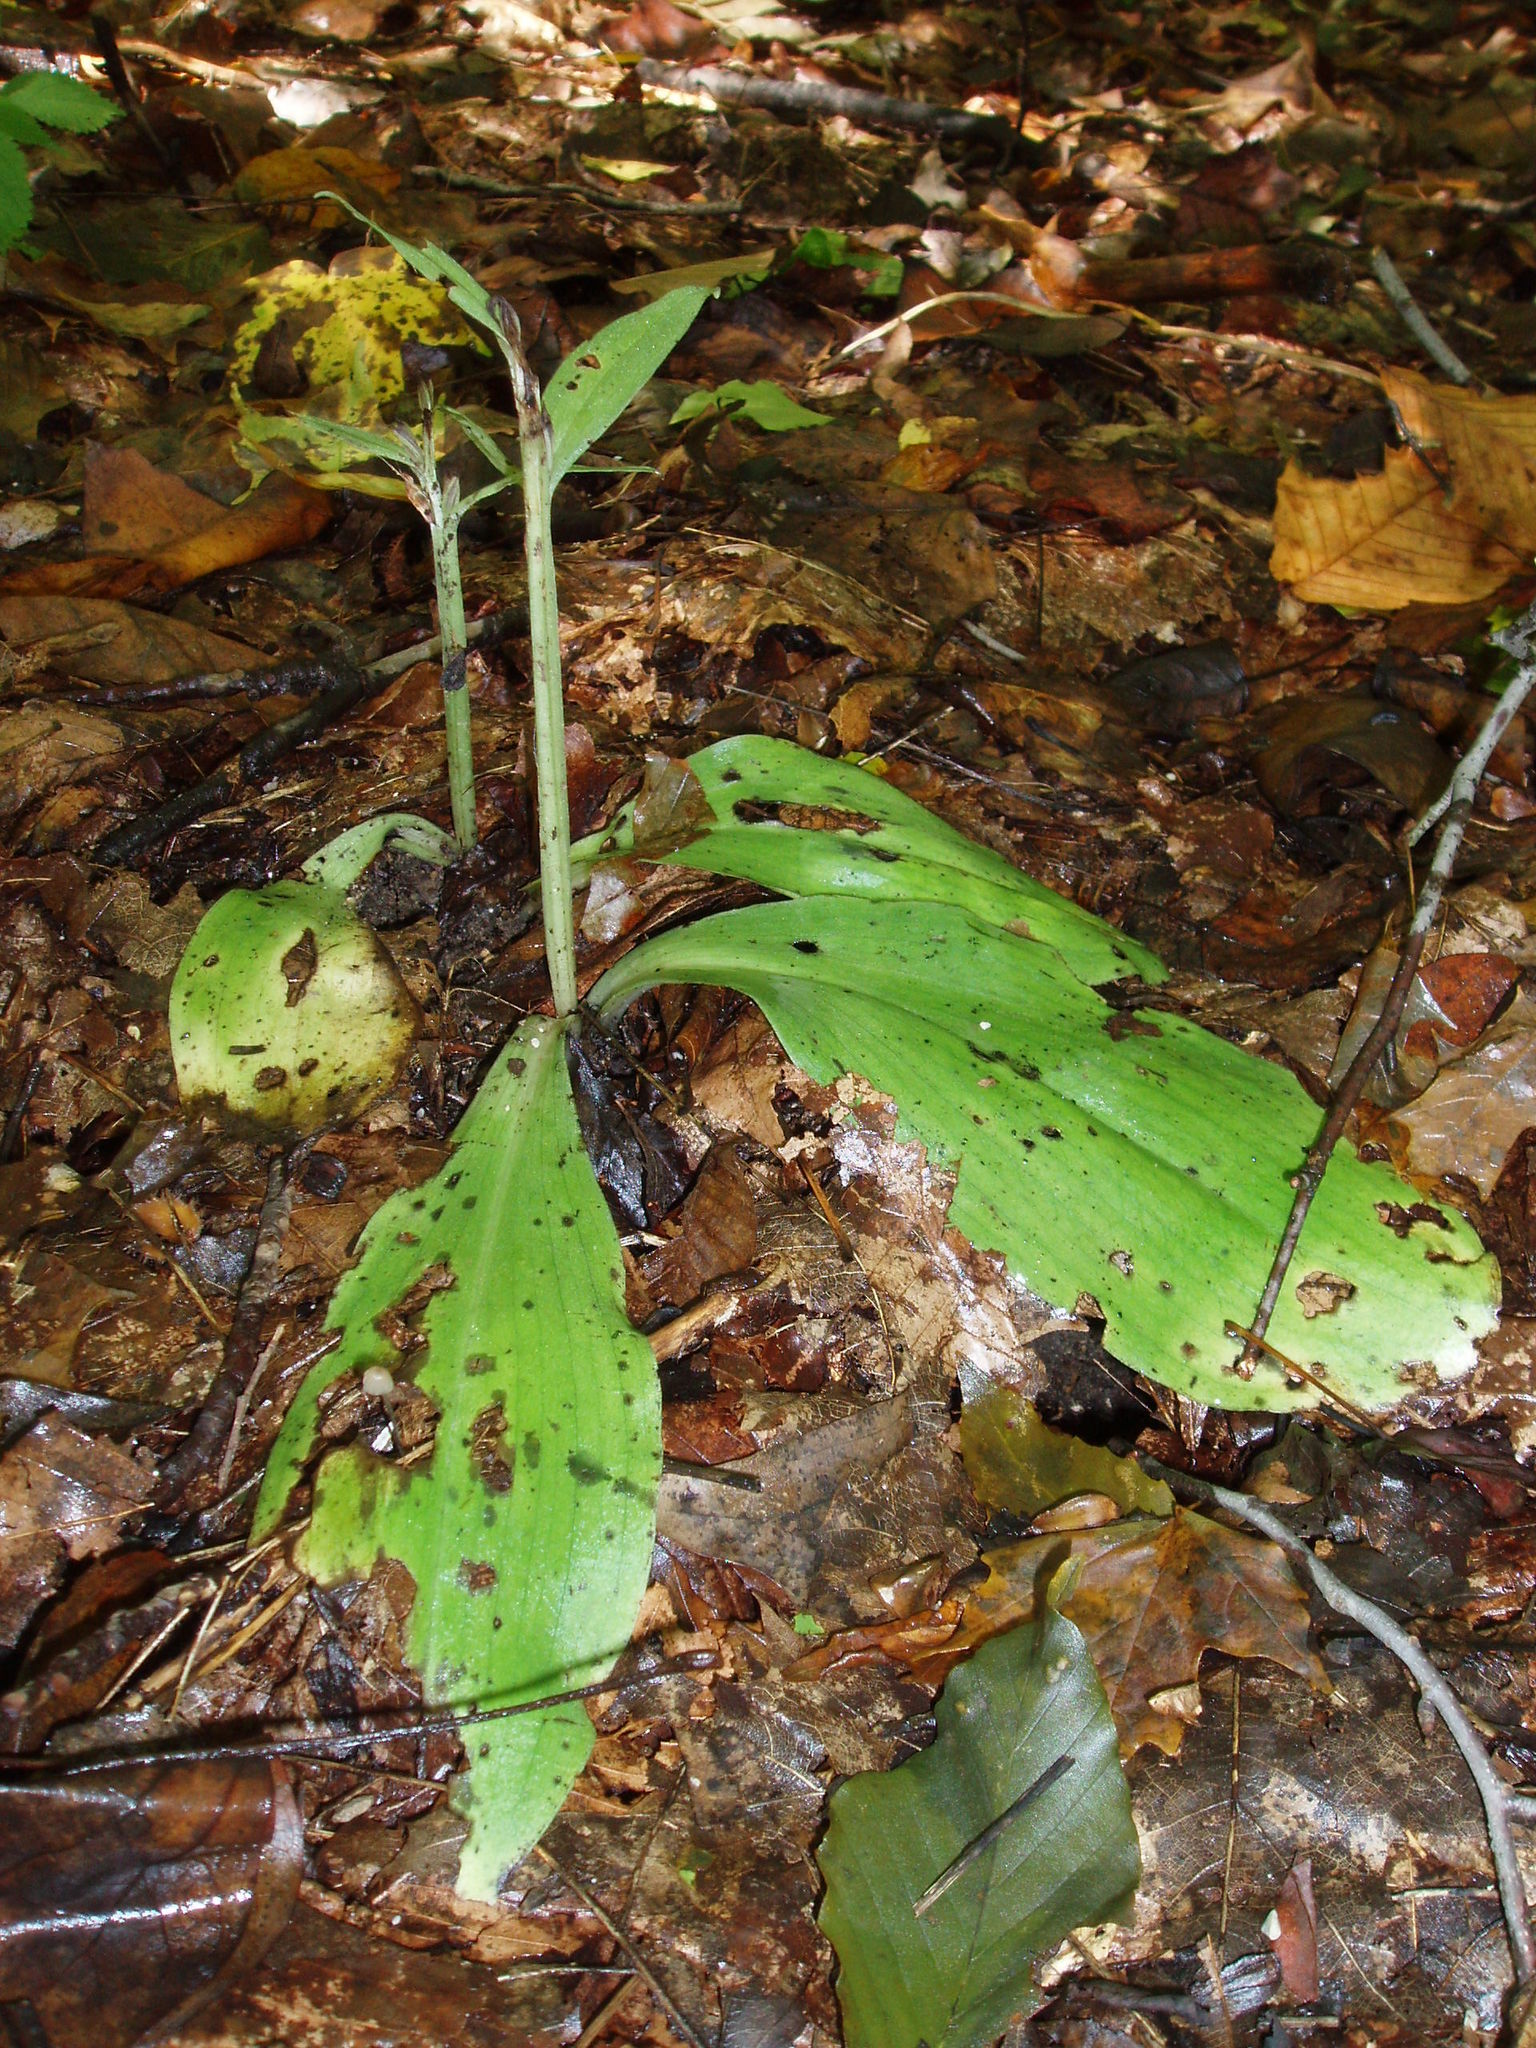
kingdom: Plantae
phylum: Tracheophyta
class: Liliopsida
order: Asparagales
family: Orchidaceae
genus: Galearis
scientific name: Galearis spectabilis
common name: Purple-hooded orchis
